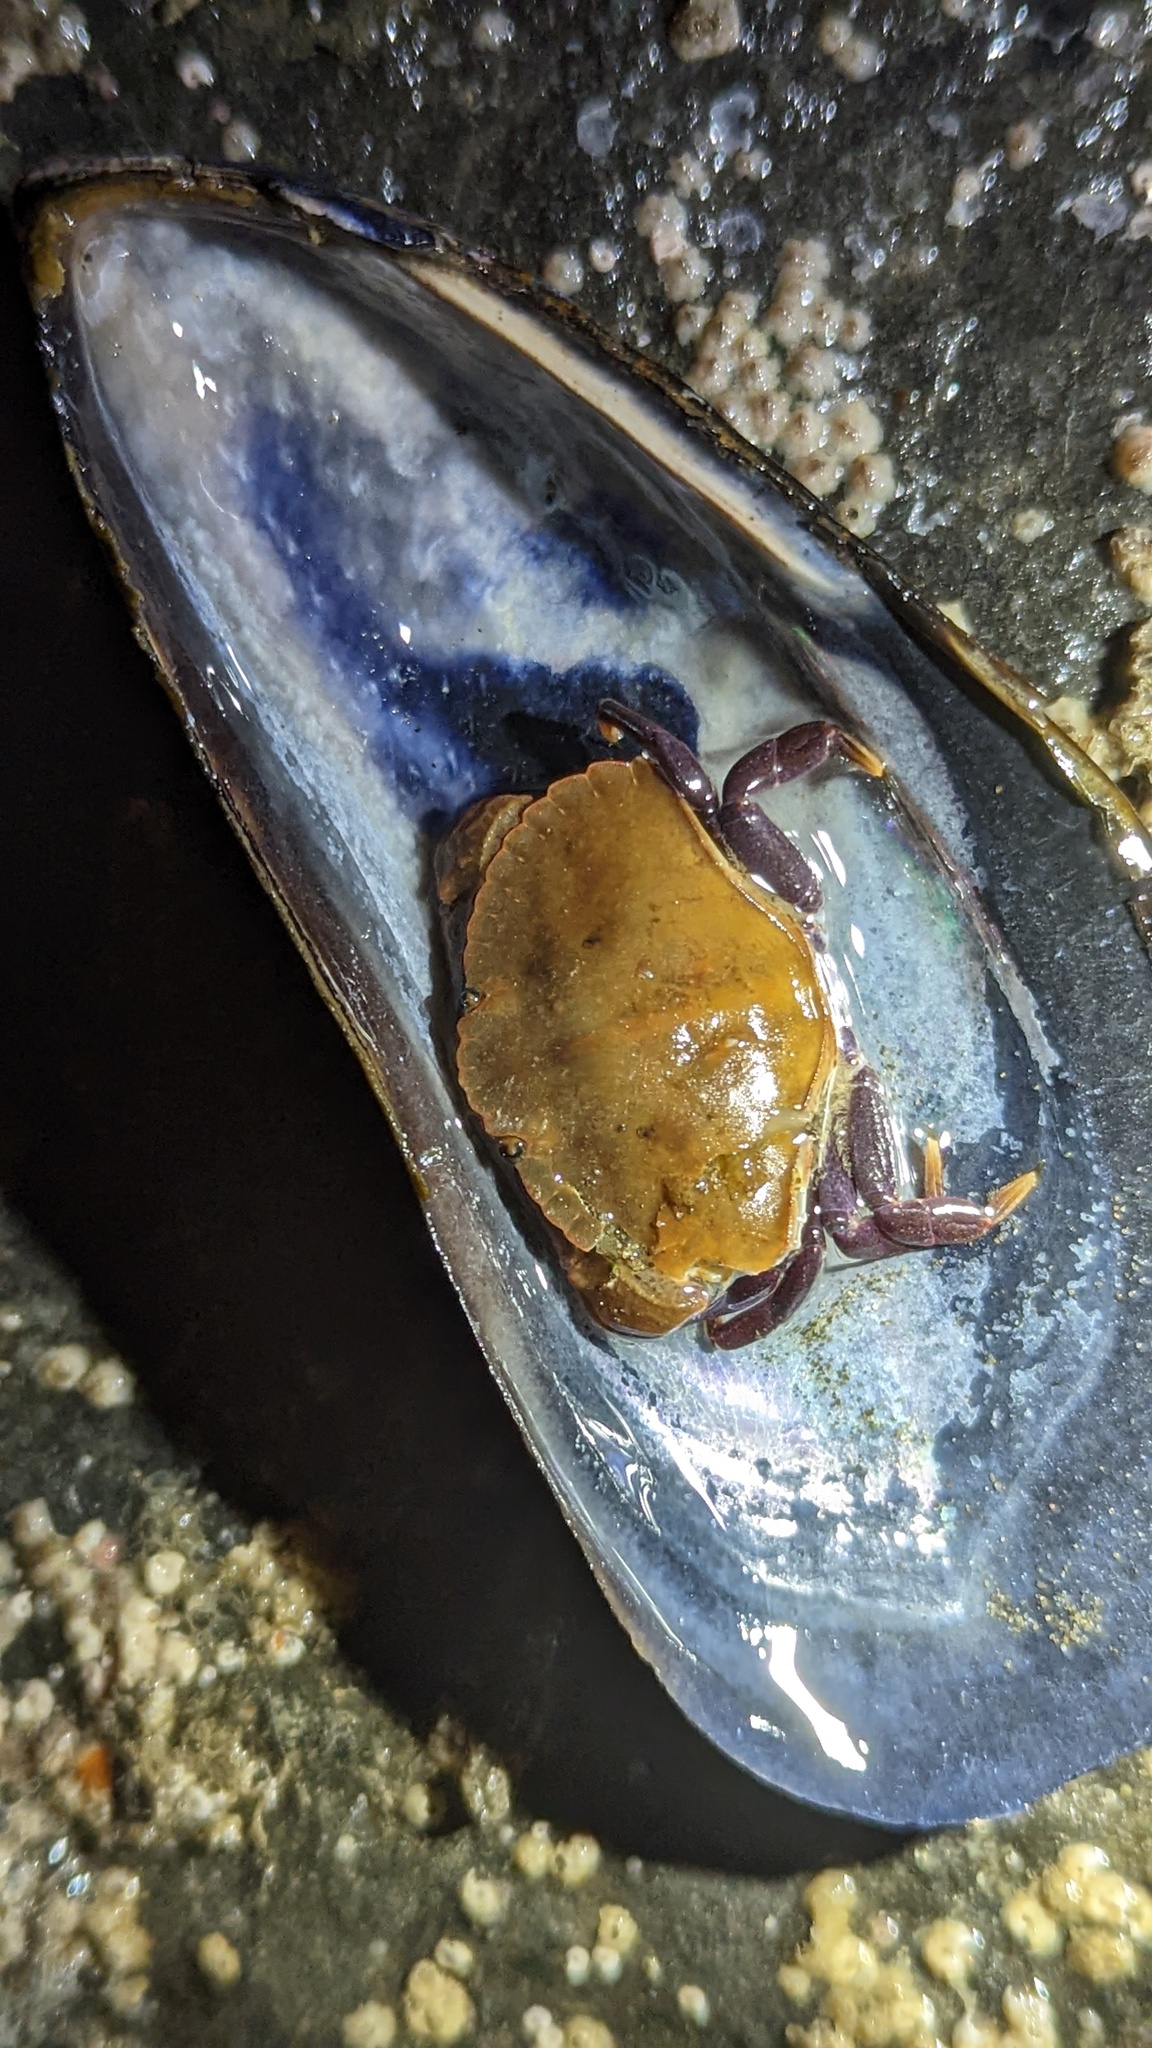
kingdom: Animalia
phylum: Arthropoda
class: Malacostraca
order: Decapoda
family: Cancridae
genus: Cancer
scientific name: Cancer productus
